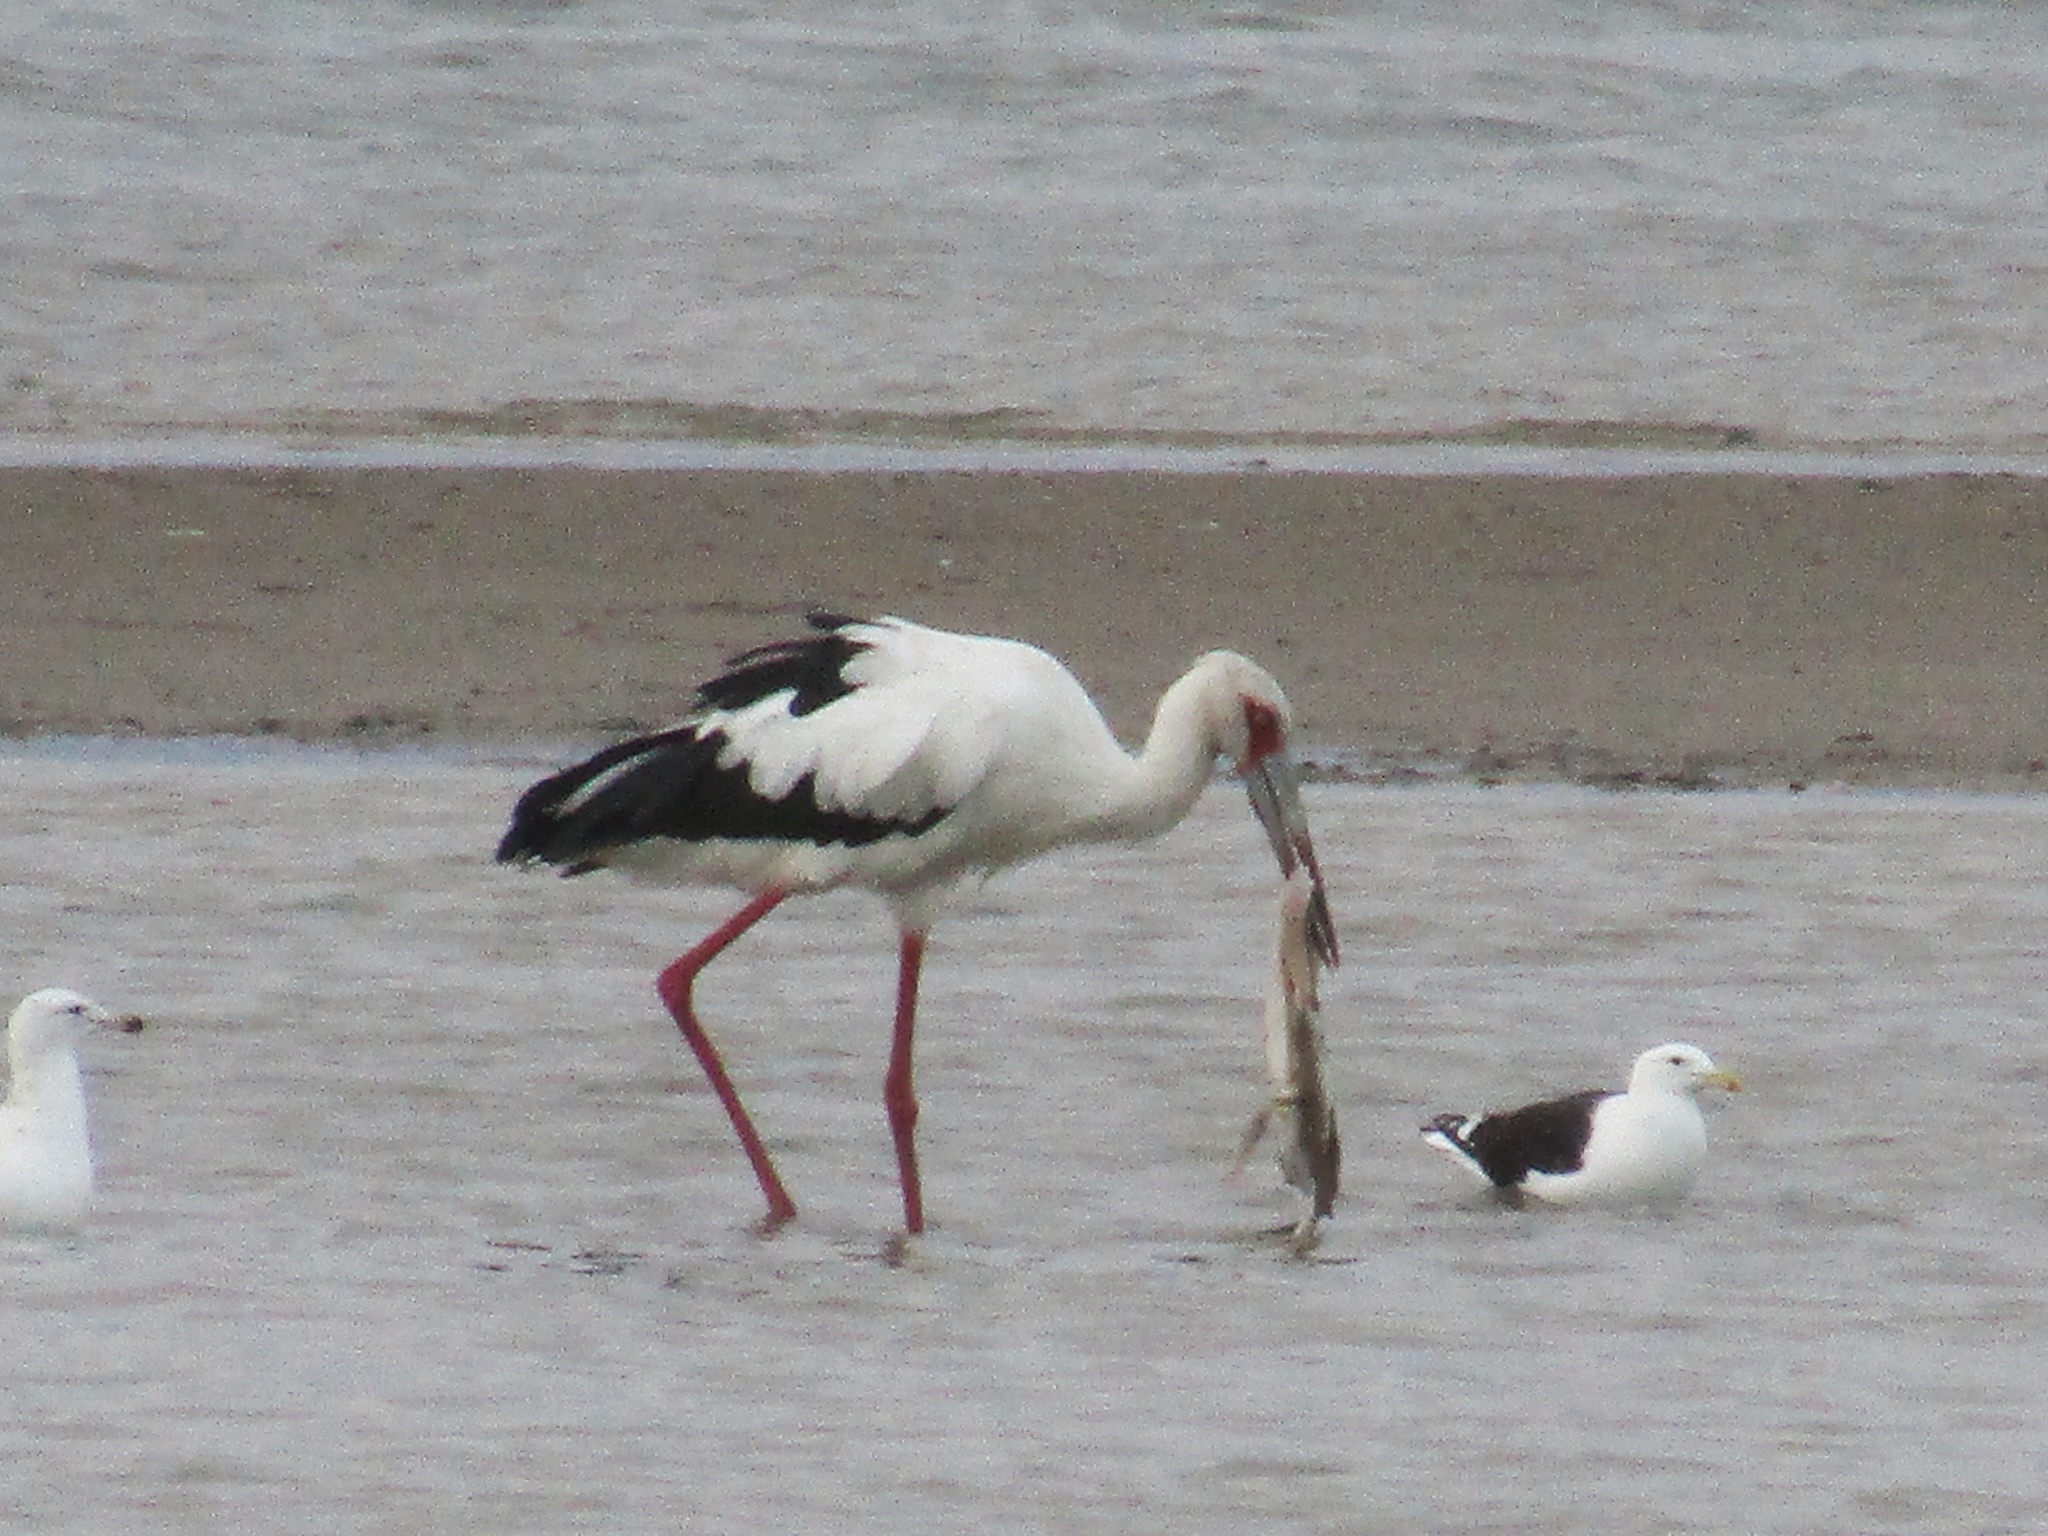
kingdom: Animalia
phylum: Chordata
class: Aves
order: Ciconiiformes
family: Ciconiidae
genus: Ciconia
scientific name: Ciconia maguari
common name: Maguari stork
